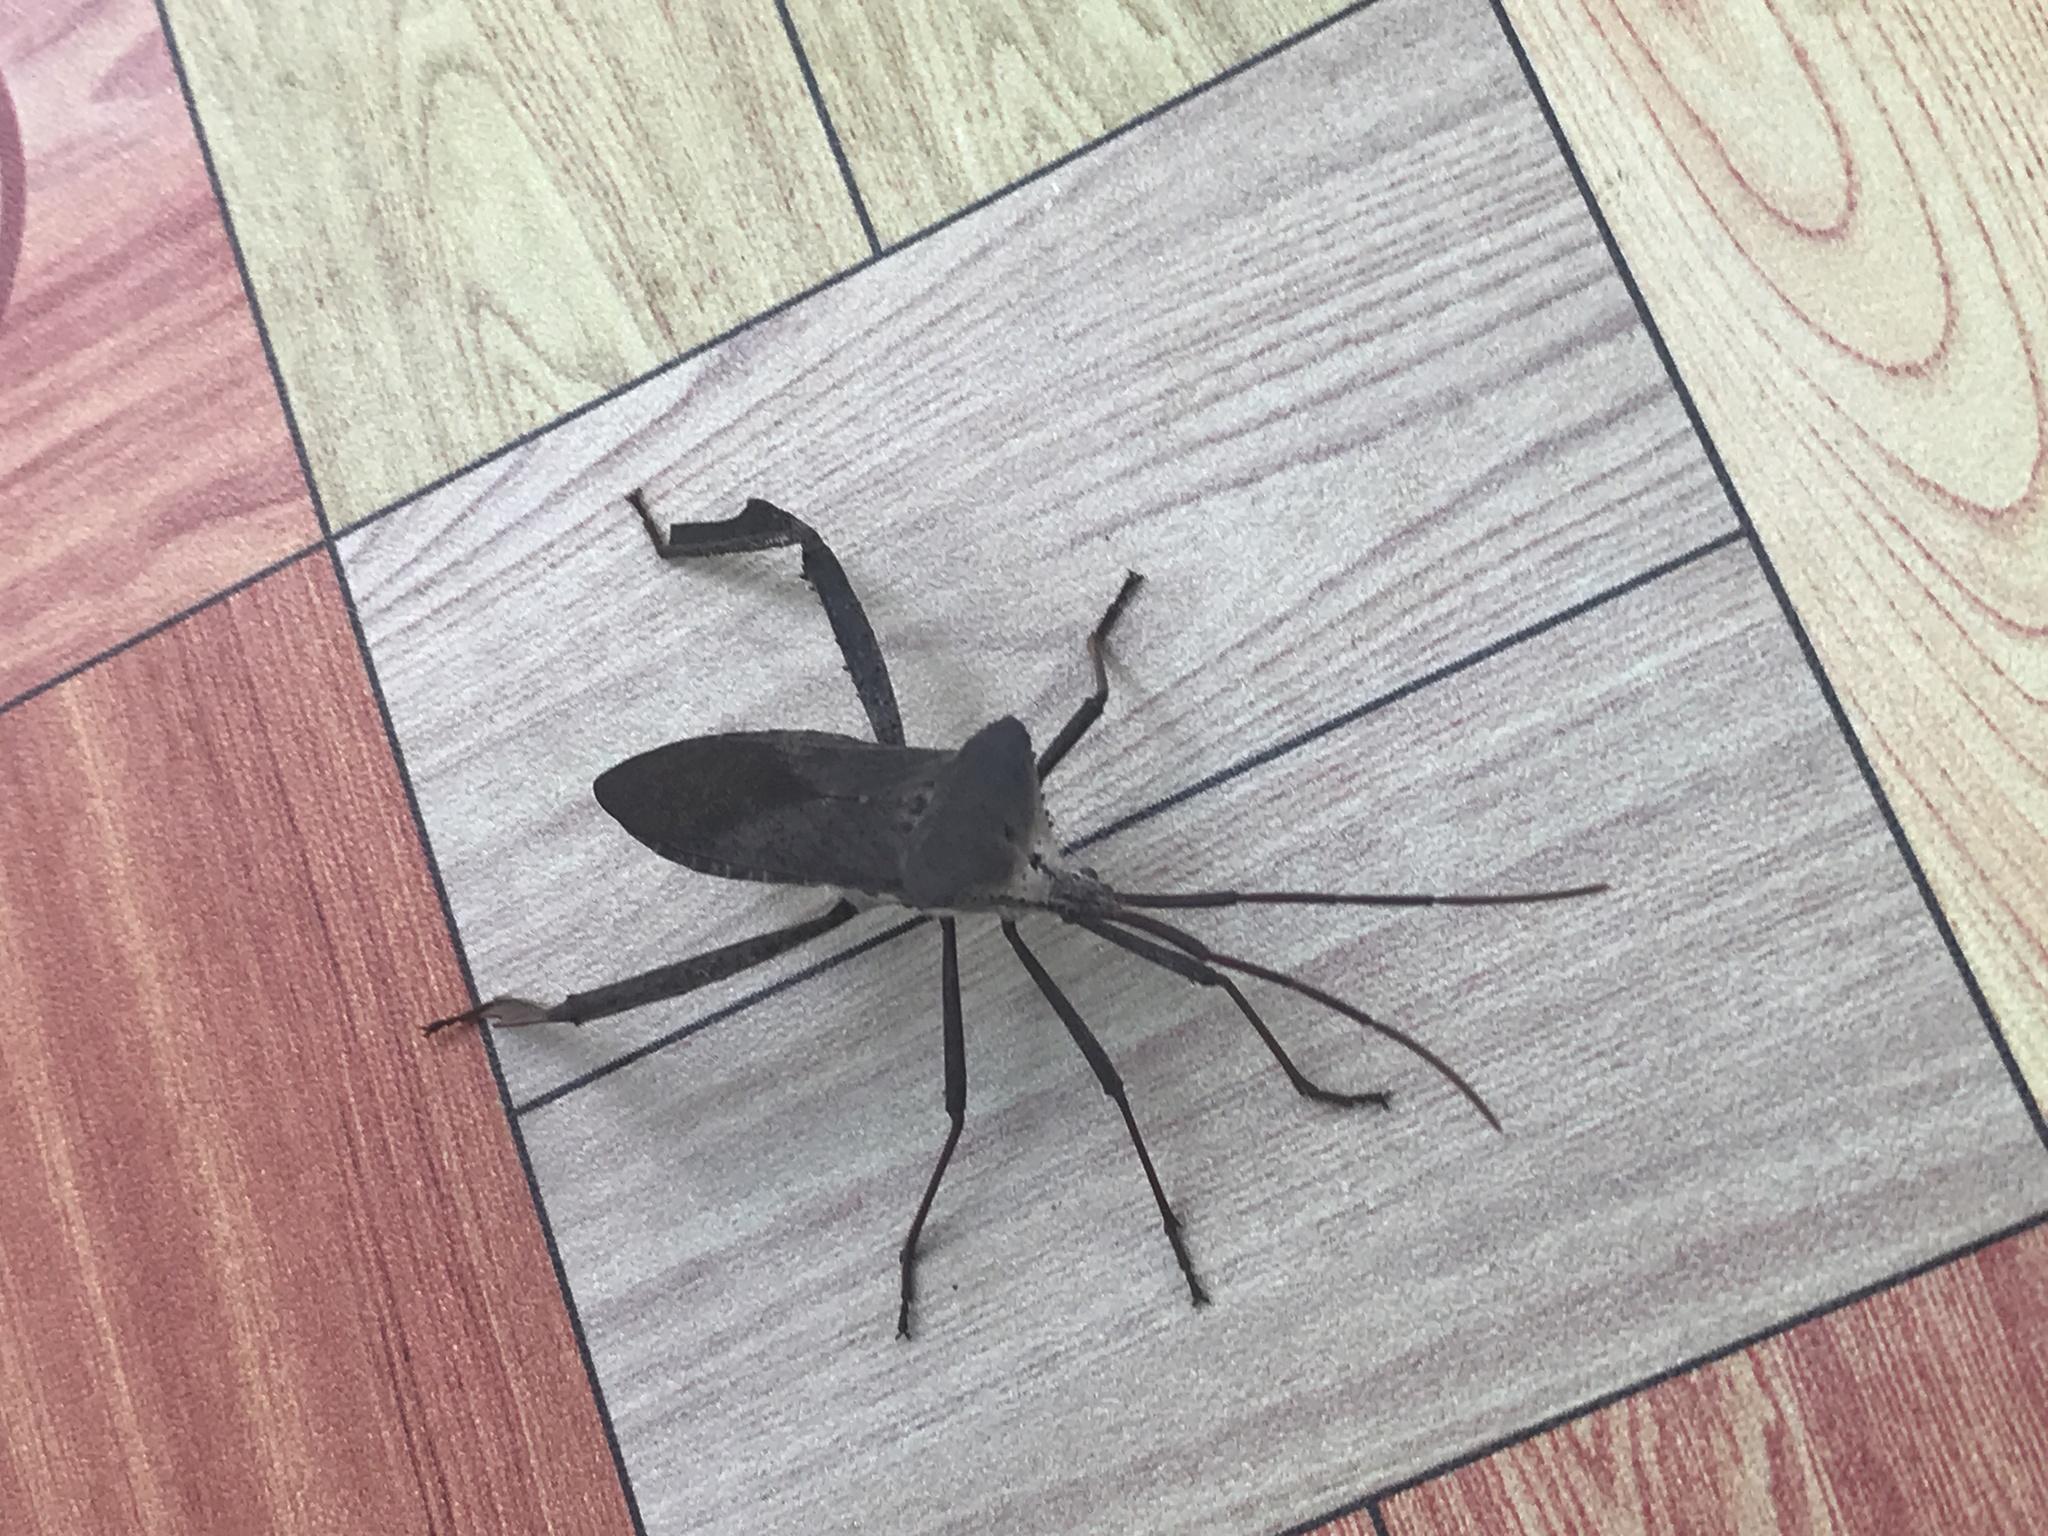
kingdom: Animalia
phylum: Arthropoda
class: Insecta
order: Hemiptera
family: Coreidae
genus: Acanthocephala
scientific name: Acanthocephala declivis
